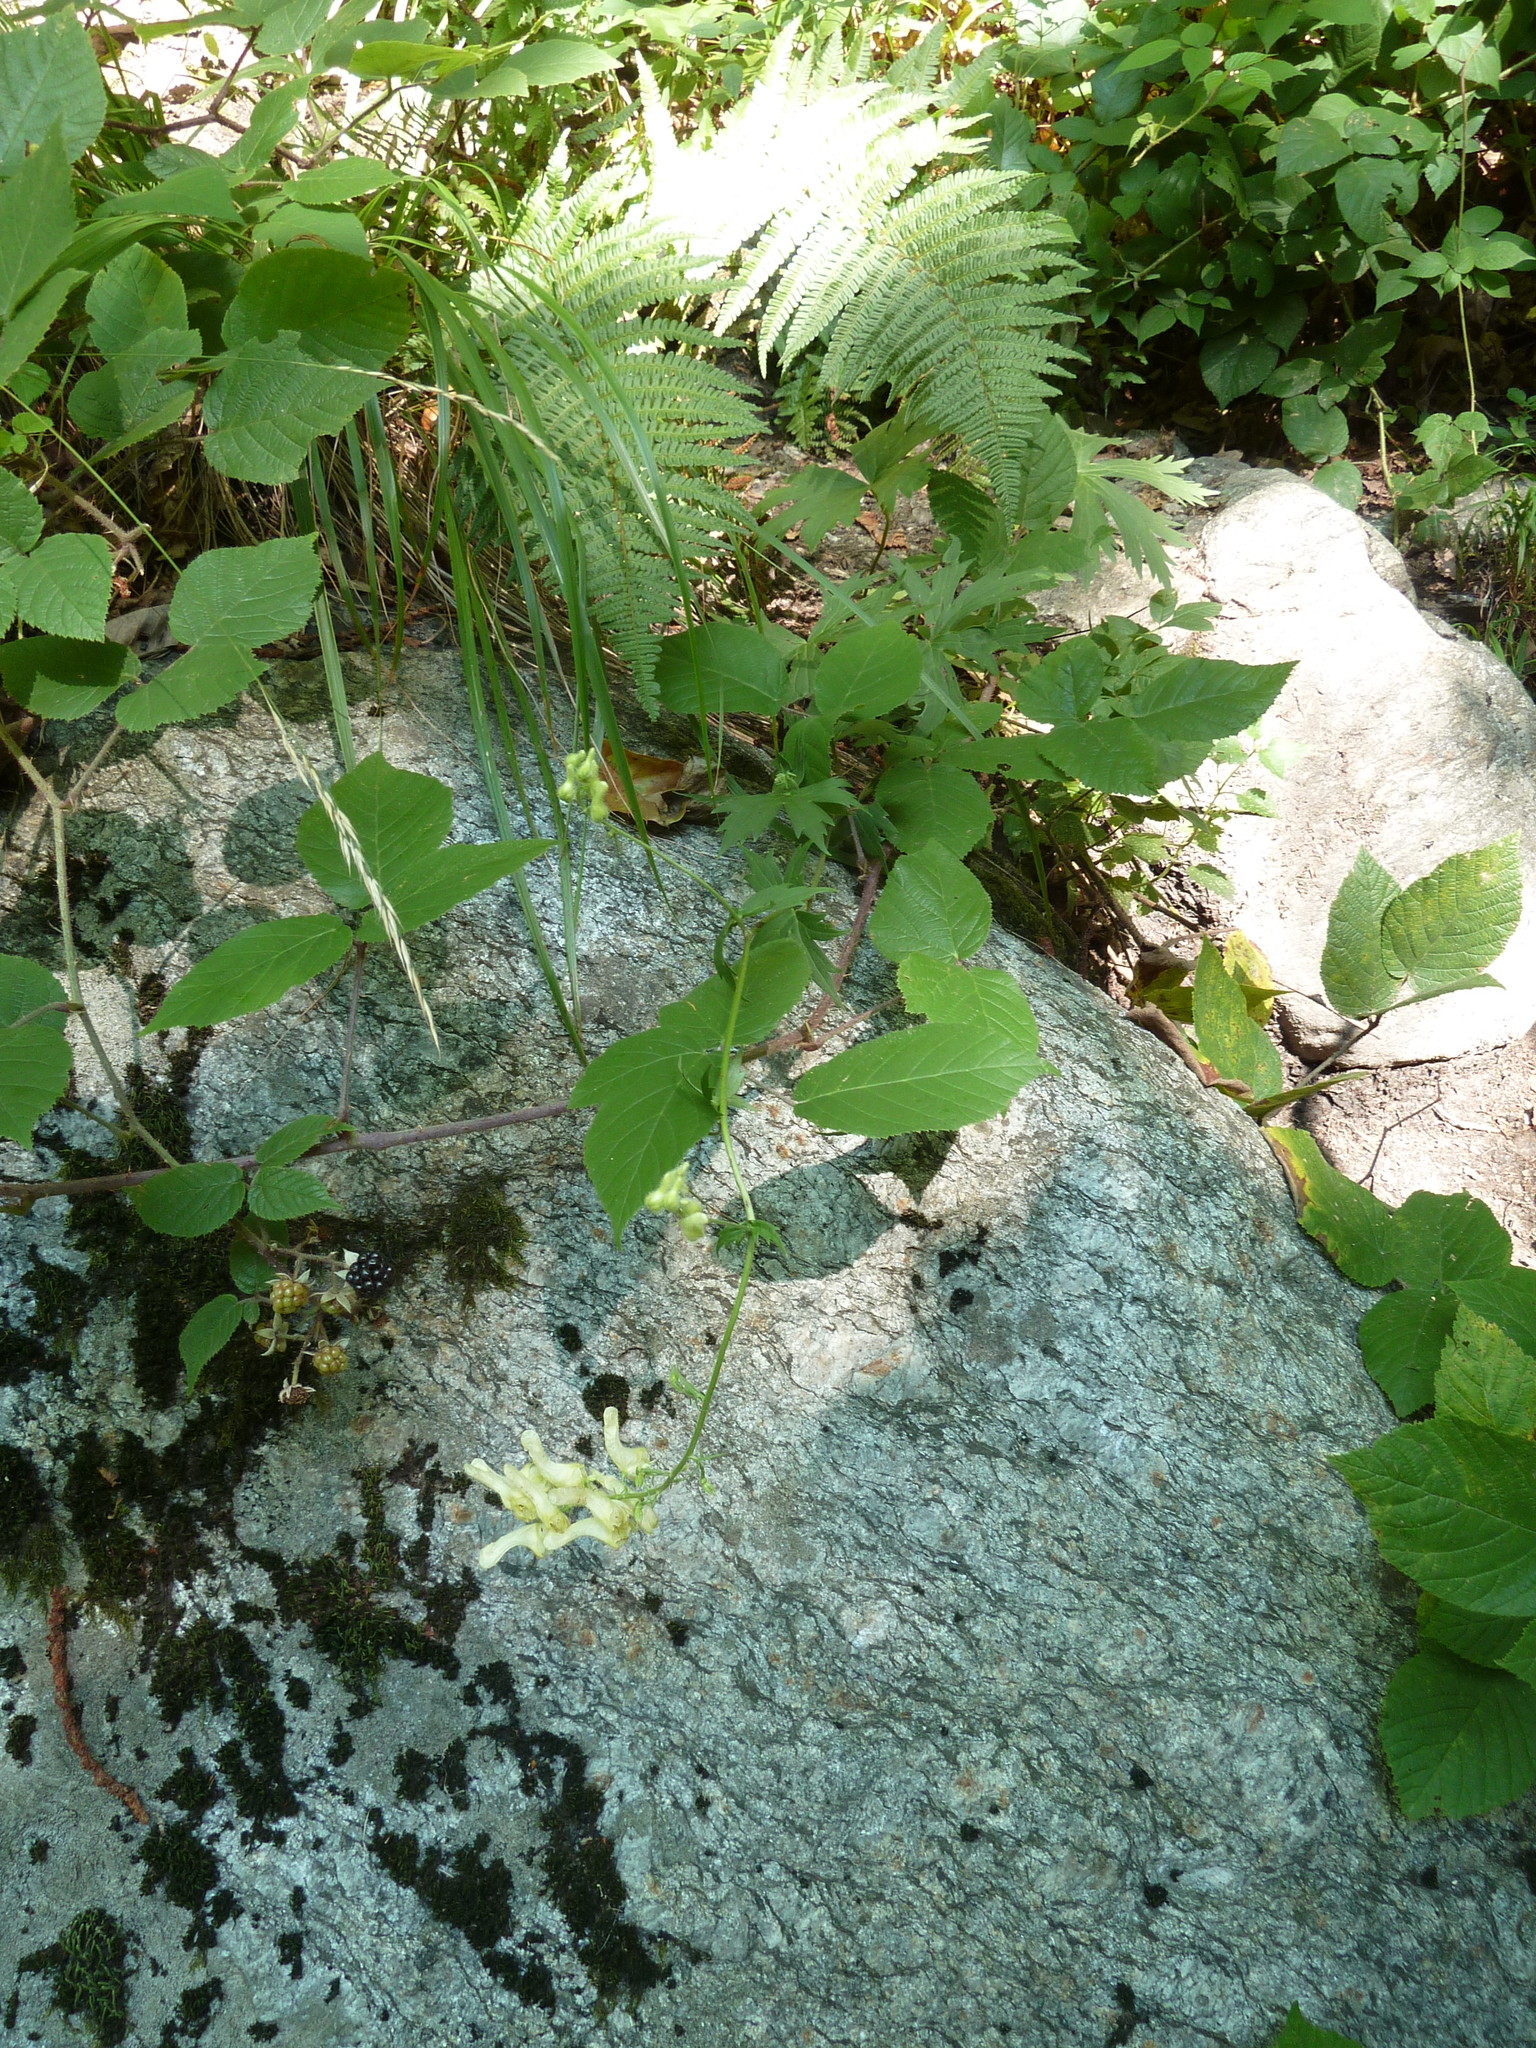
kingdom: Plantae
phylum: Tracheophyta
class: Magnoliopsida
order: Ranunculales
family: Ranunculaceae
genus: Aconitum
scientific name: Aconitum lycoctonum
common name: Wolf's-bane
